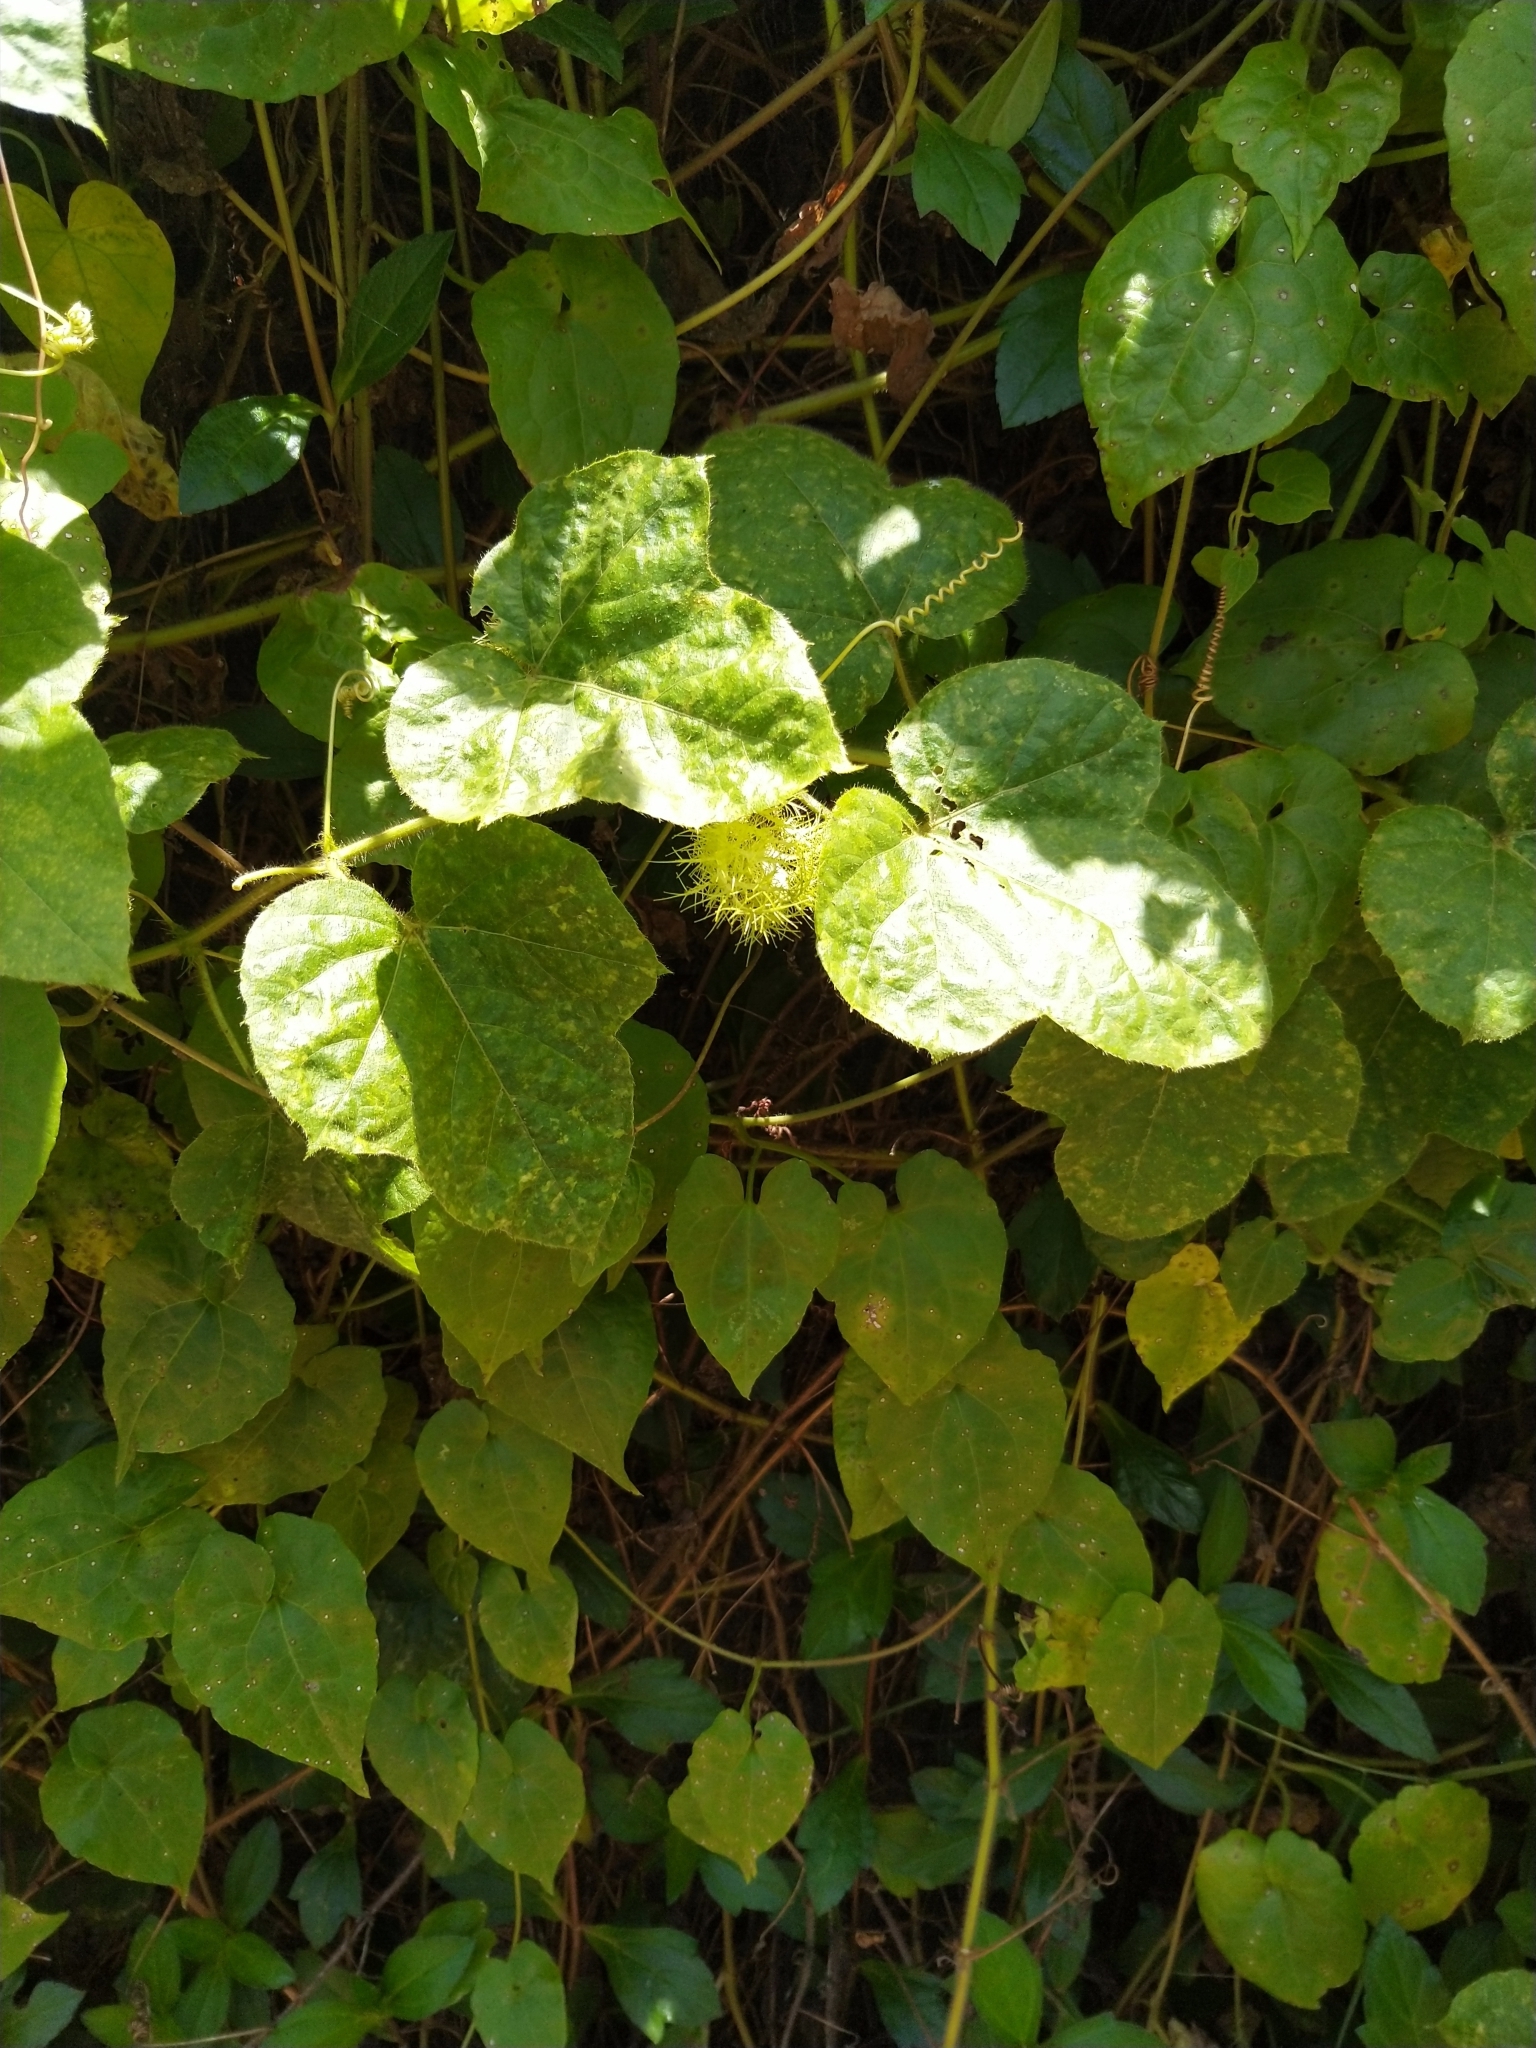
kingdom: Plantae
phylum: Tracheophyta
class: Magnoliopsida
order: Malpighiales
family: Passifloraceae
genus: Passiflora
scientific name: Passiflora foetida
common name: Fetid passionflower
